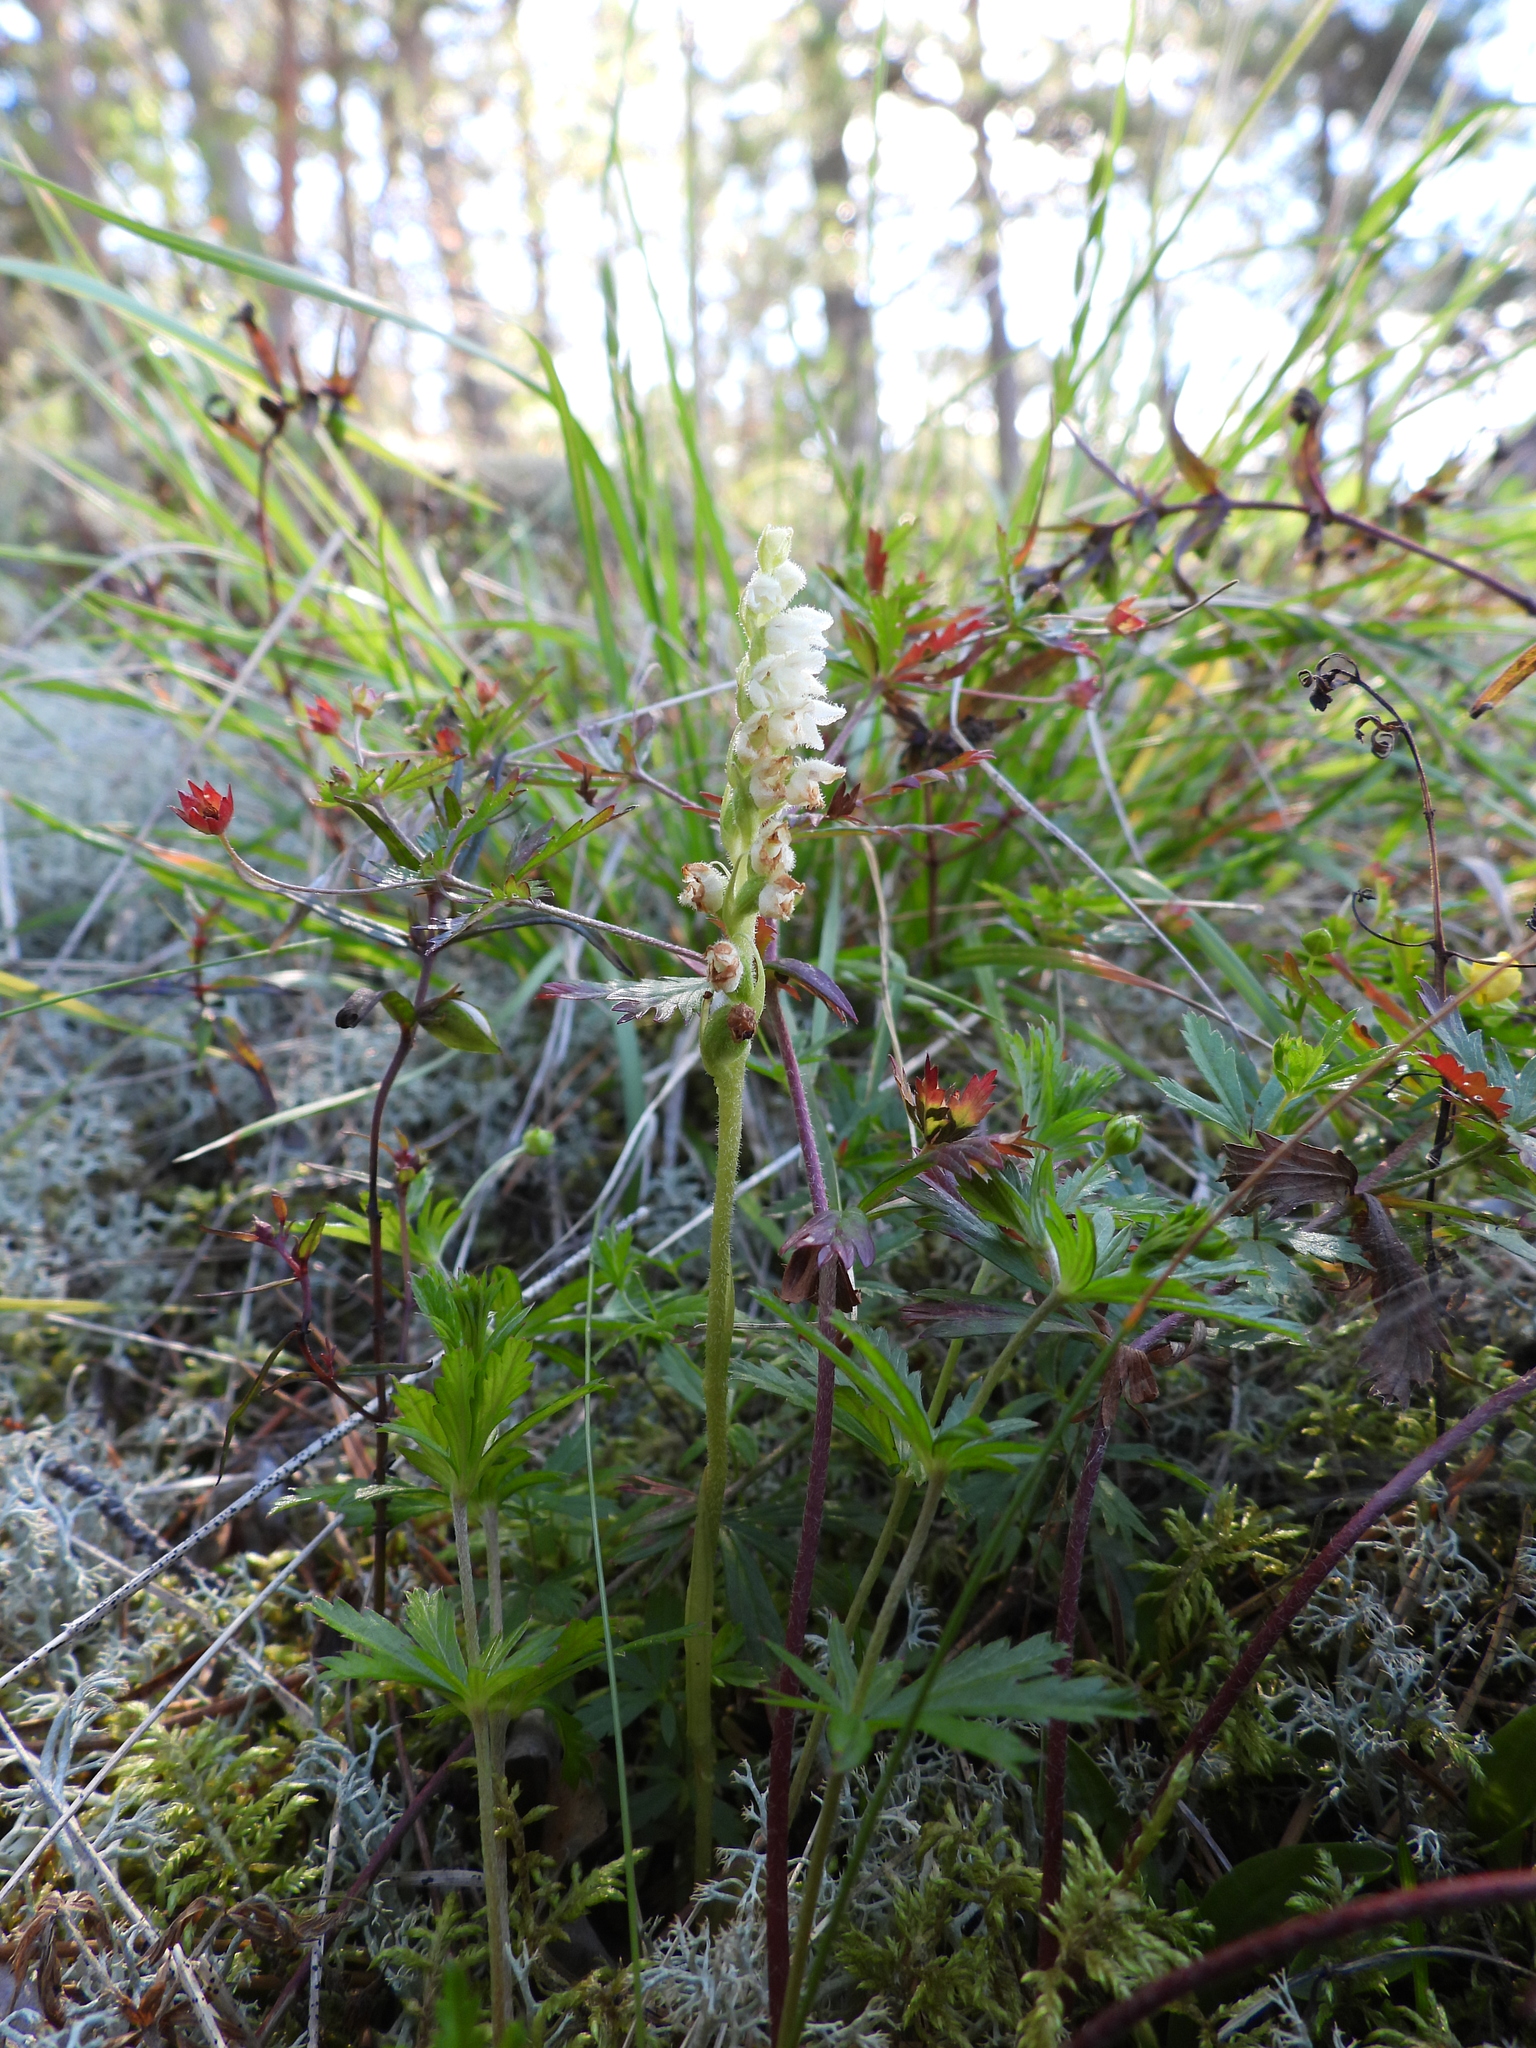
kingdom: Plantae
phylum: Tracheophyta
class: Liliopsida
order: Asparagales
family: Orchidaceae
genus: Goodyera
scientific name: Goodyera repens
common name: Creeping lady's-tresses
